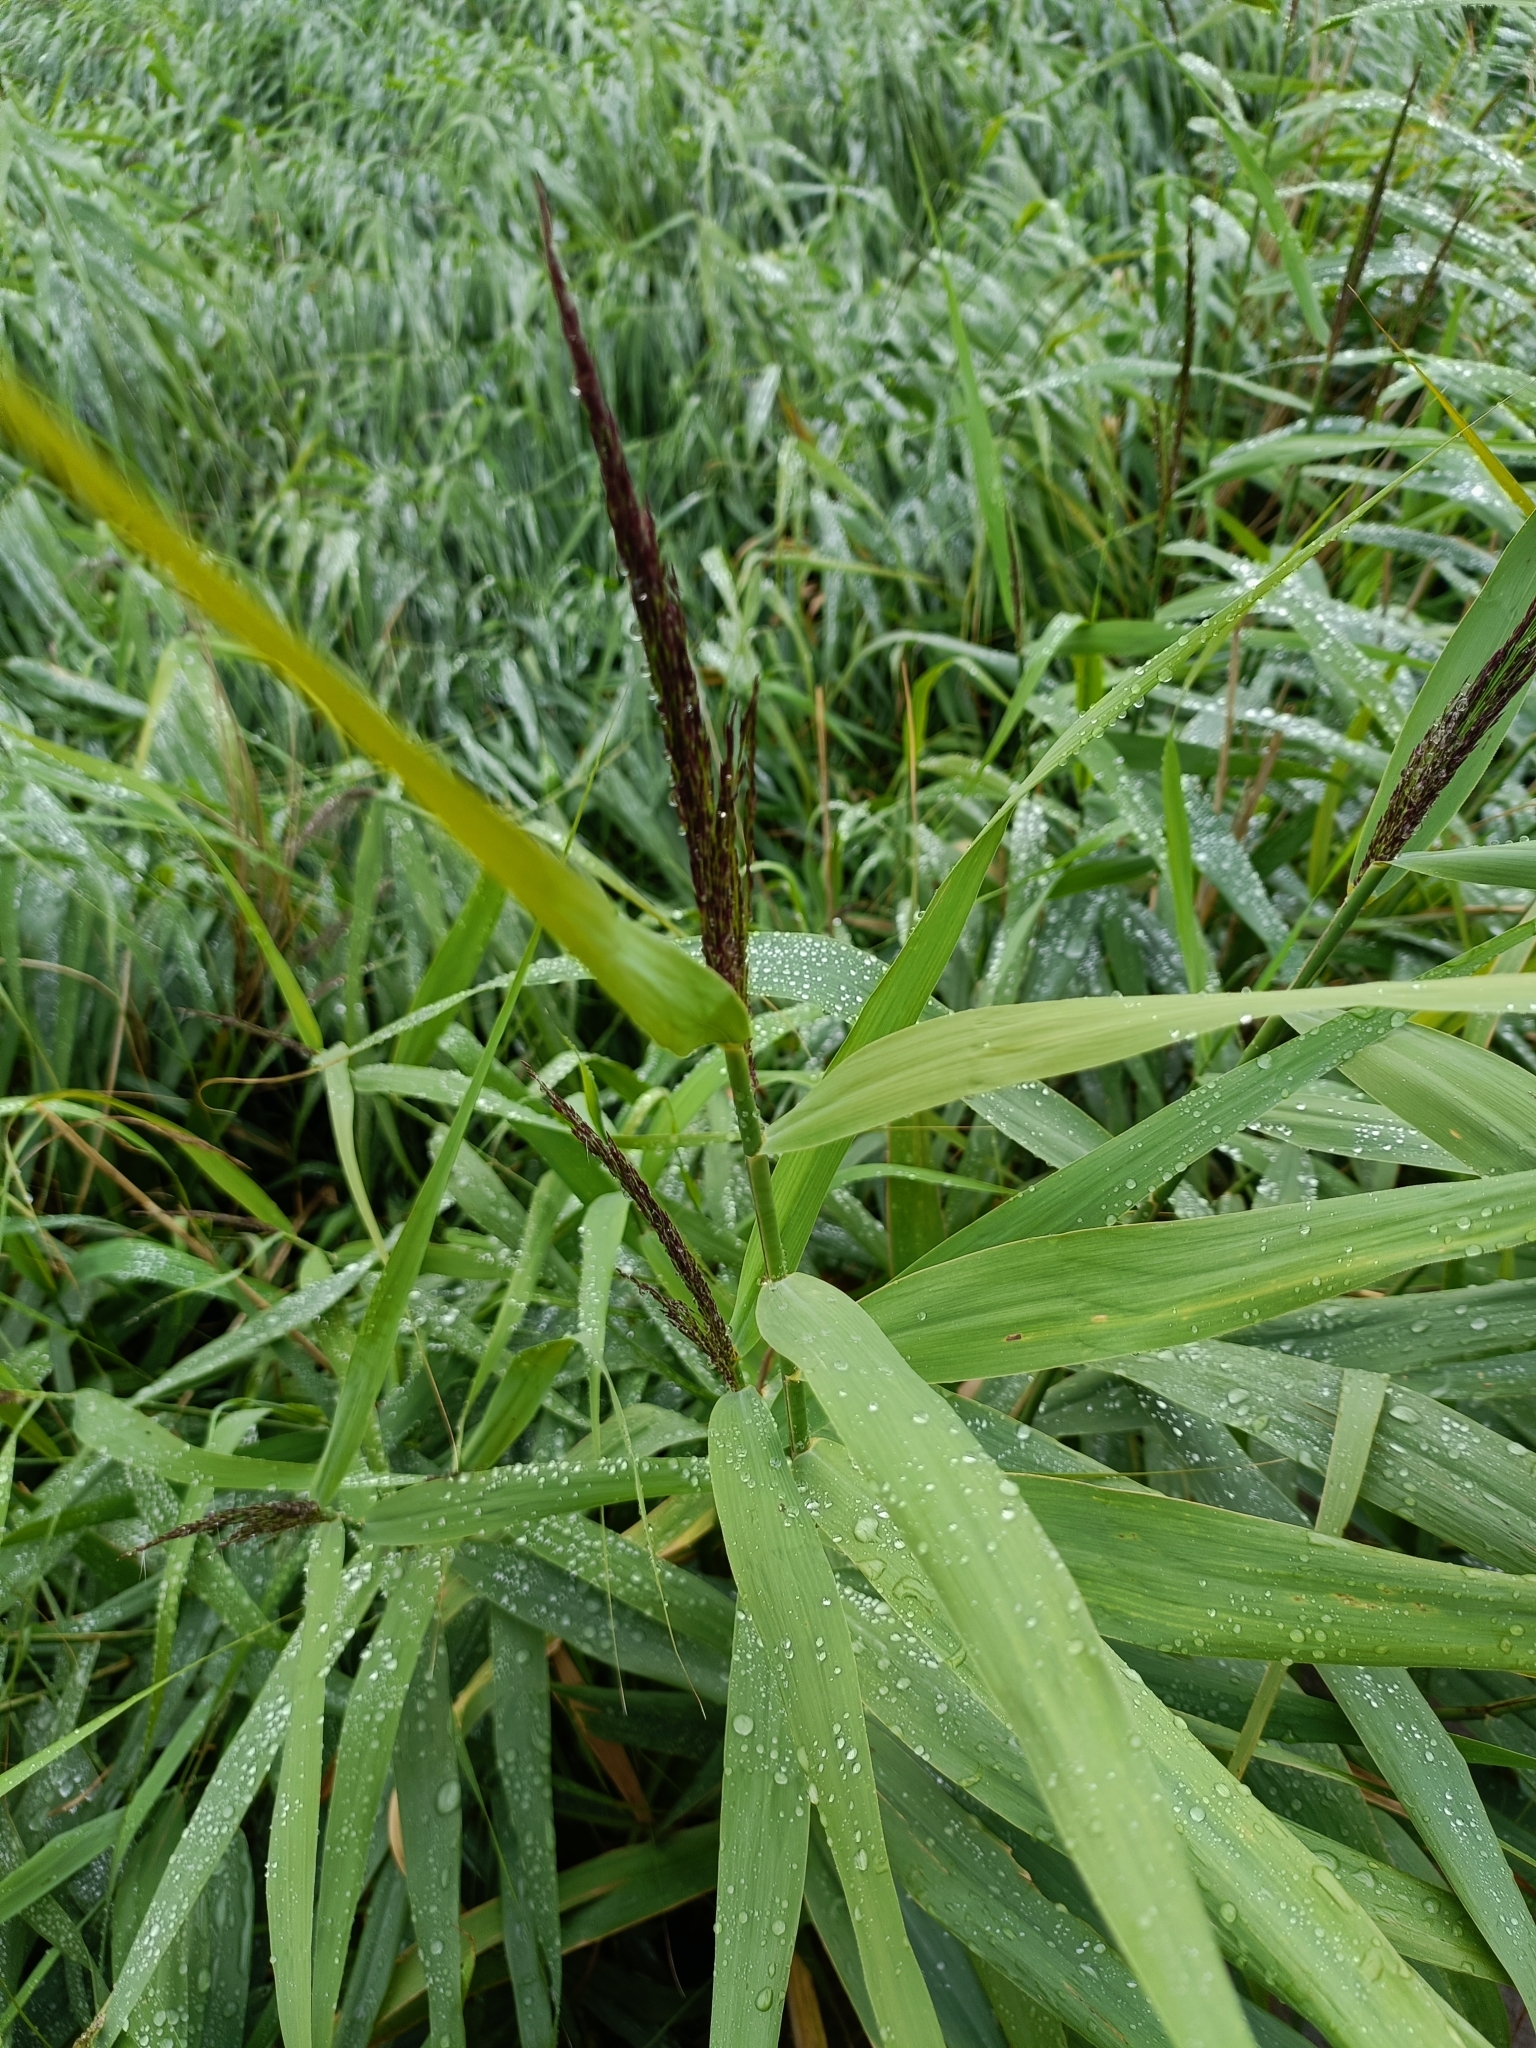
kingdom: Plantae
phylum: Tracheophyta
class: Liliopsida
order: Poales
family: Poaceae
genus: Phragmites
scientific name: Phragmites australis
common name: Common reed
